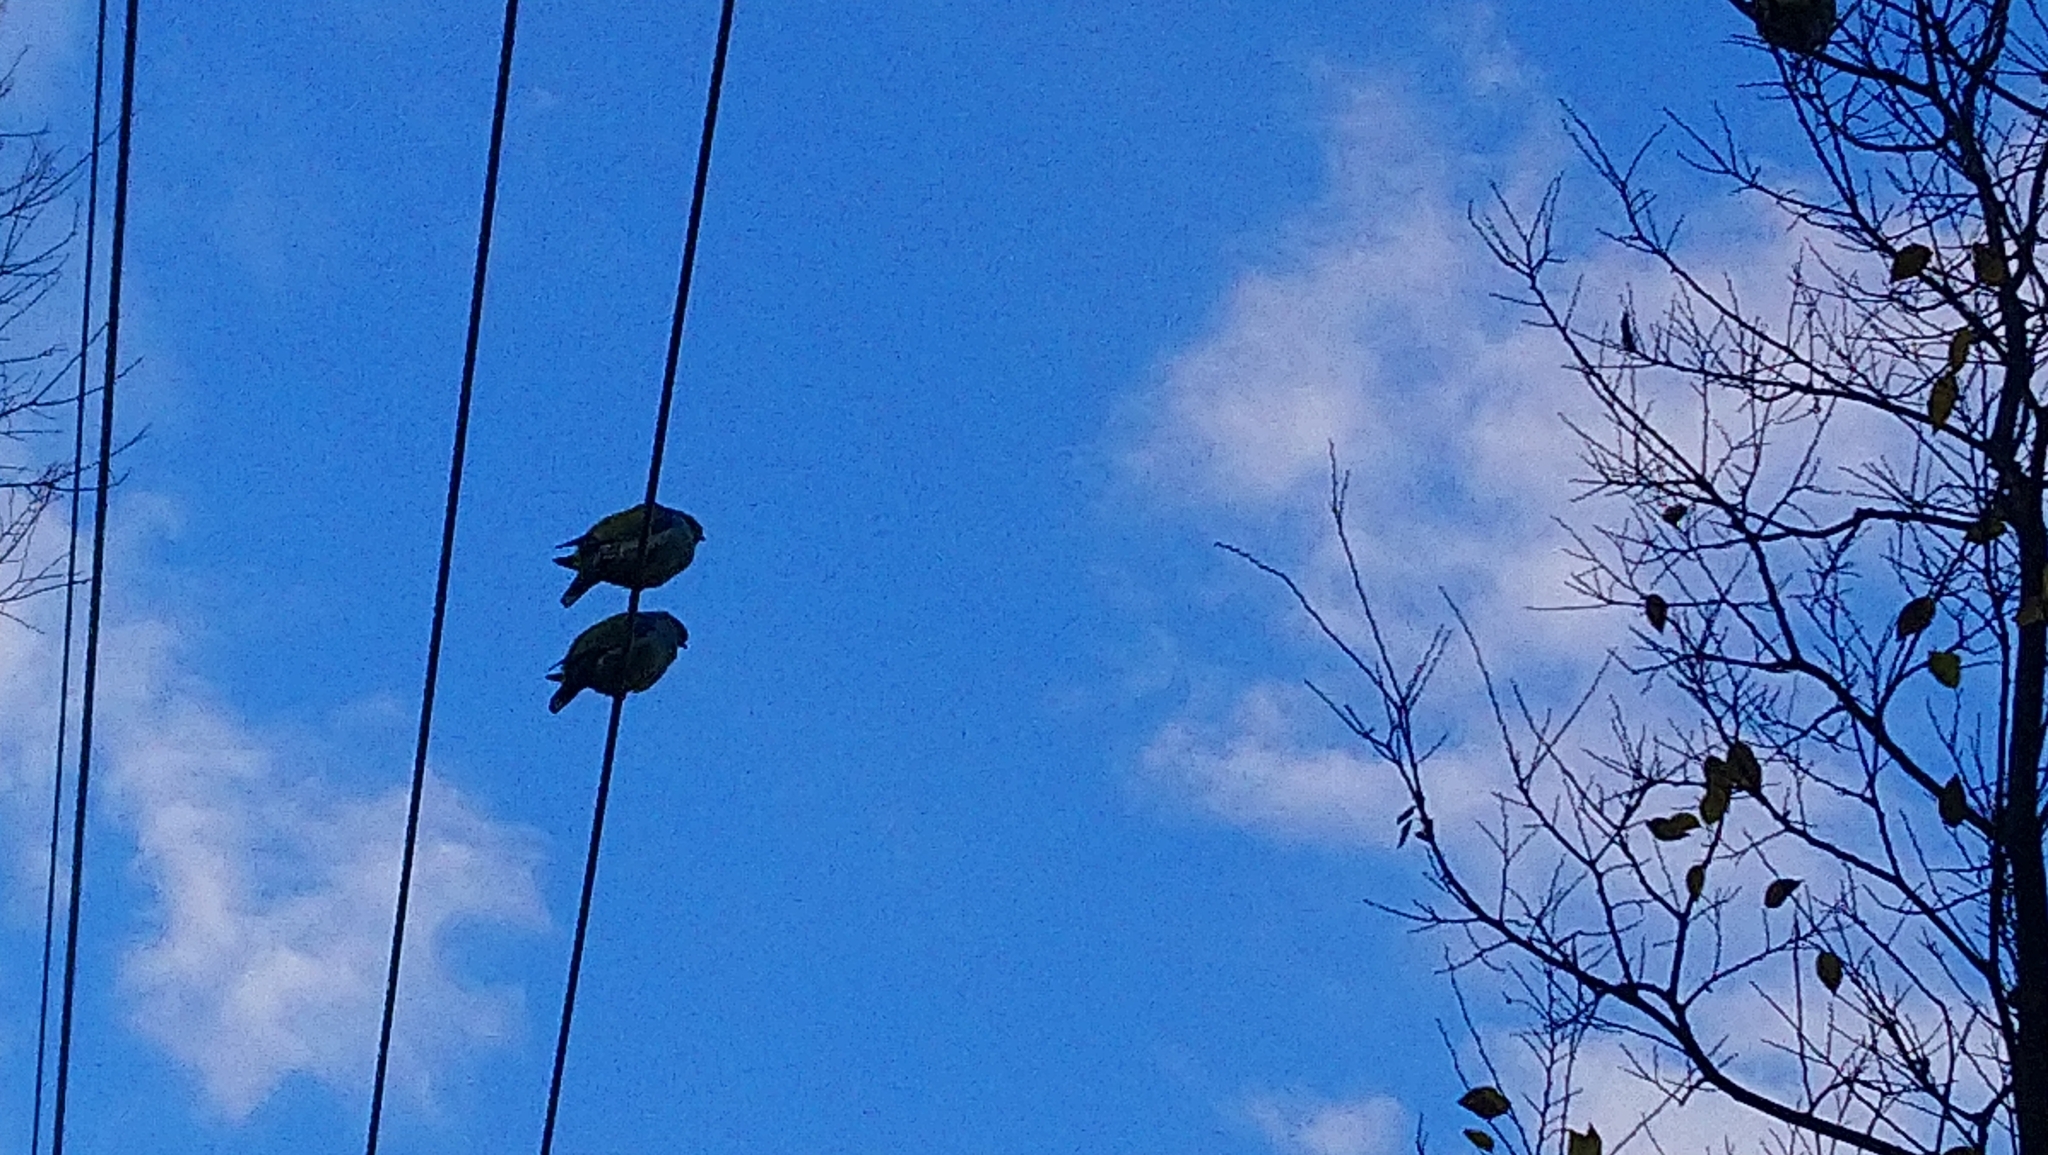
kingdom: Animalia
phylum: Chordata
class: Aves
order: Columbiformes
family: Columbidae
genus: Treron
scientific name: Treron calvus
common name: African green pigeon
